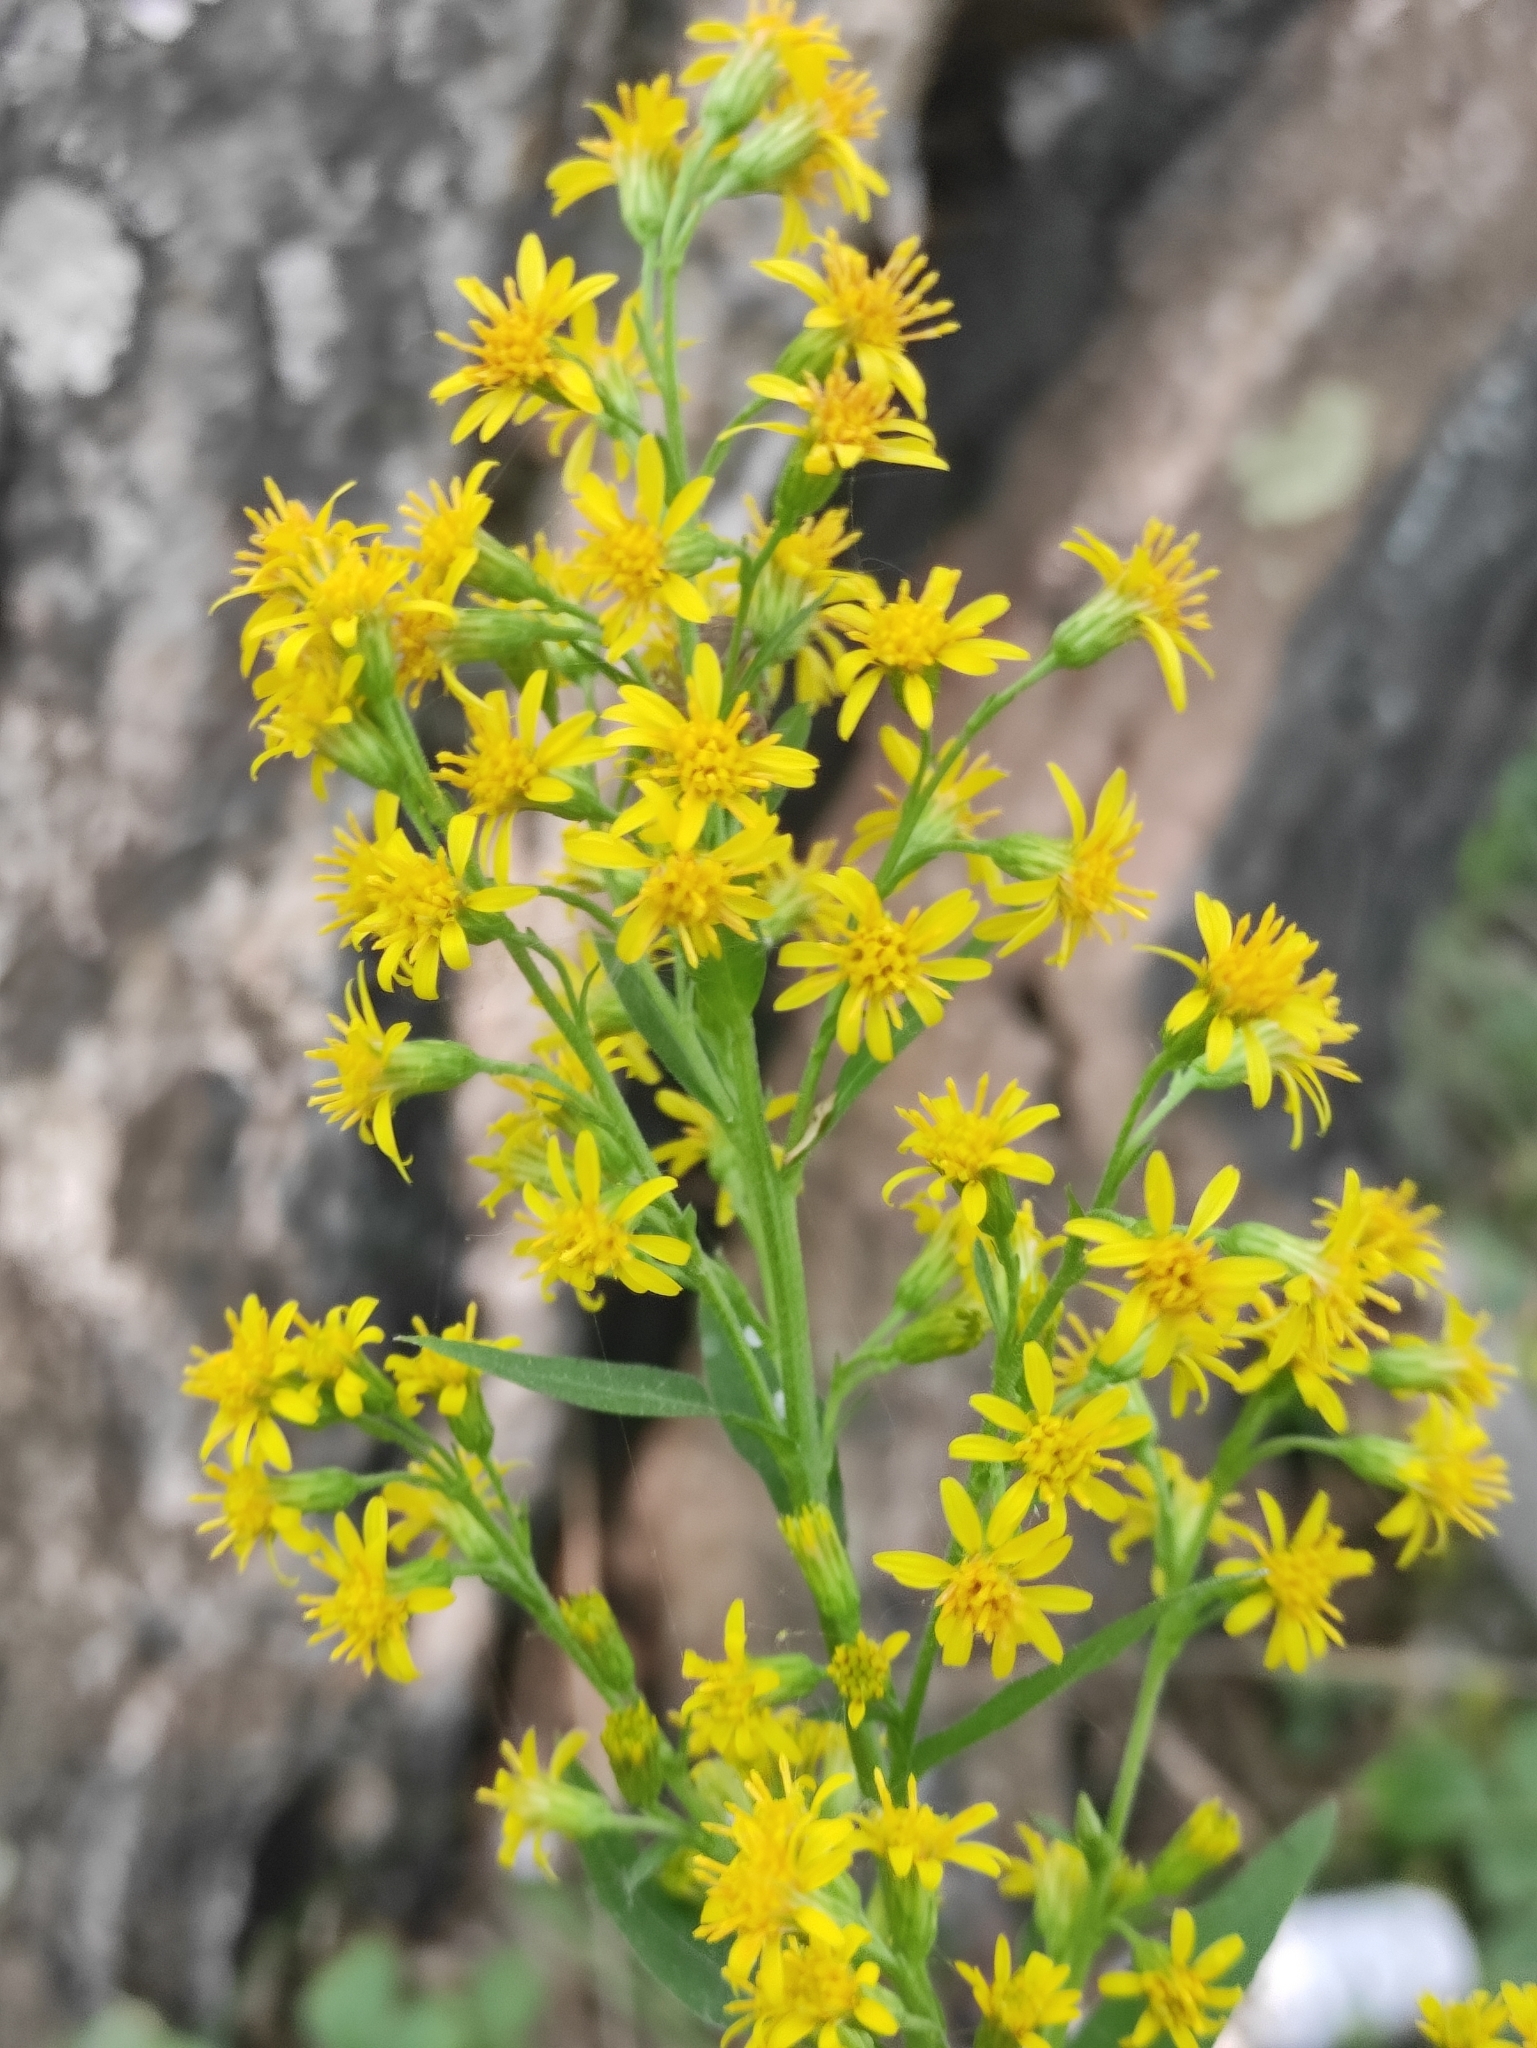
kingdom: Plantae
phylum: Tracheophyta
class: Magnoliopsida
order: Asterales
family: Asteraceae
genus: Solidago
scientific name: Solidago dahurica
